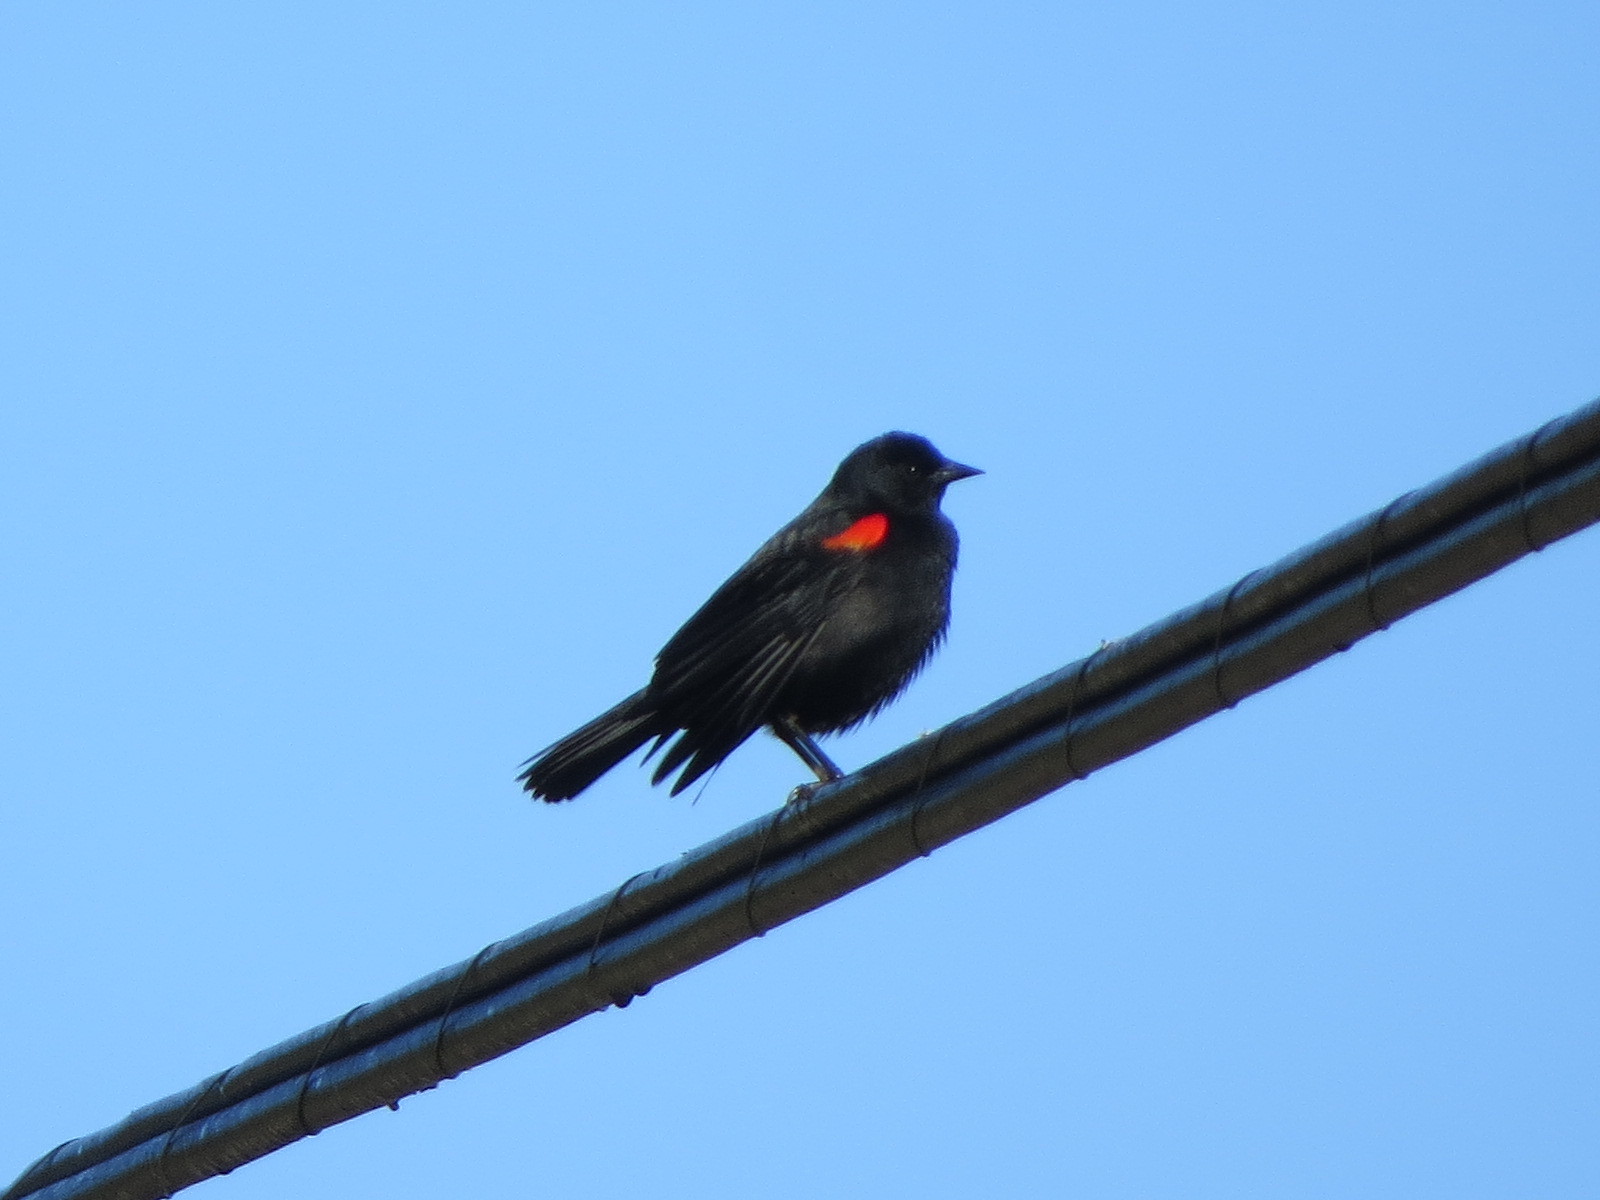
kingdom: Animalia
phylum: Chordata
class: Aves
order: Passeriformes
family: Icteridae
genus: Agelaius
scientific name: Agelaius phoeniceus
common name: Red-winged blackbird
